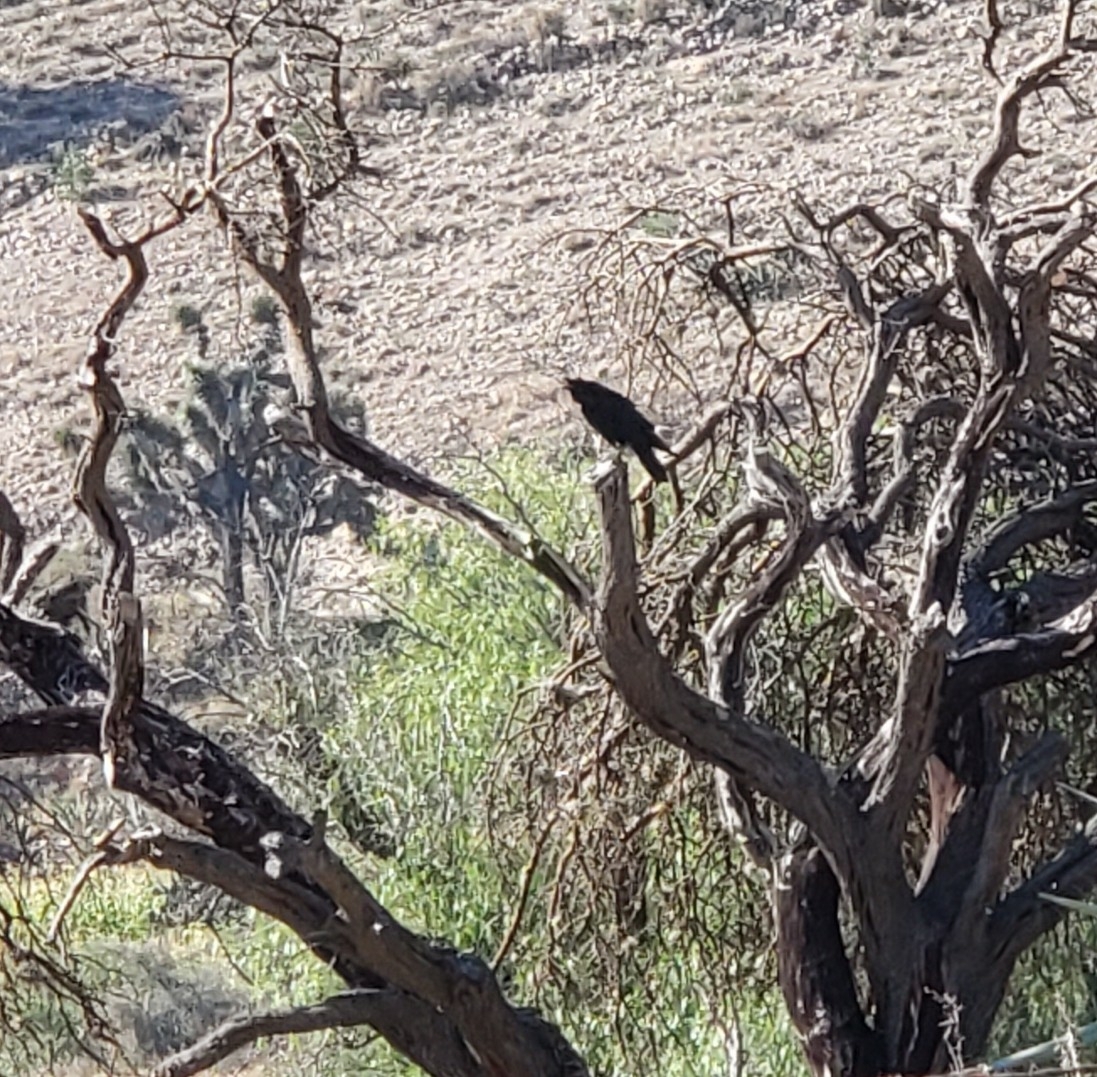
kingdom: Animalia
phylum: Chordata
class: Aves
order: Passeriformes
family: Corvidae
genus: Corvus
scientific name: Corvus corax
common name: Common raven
